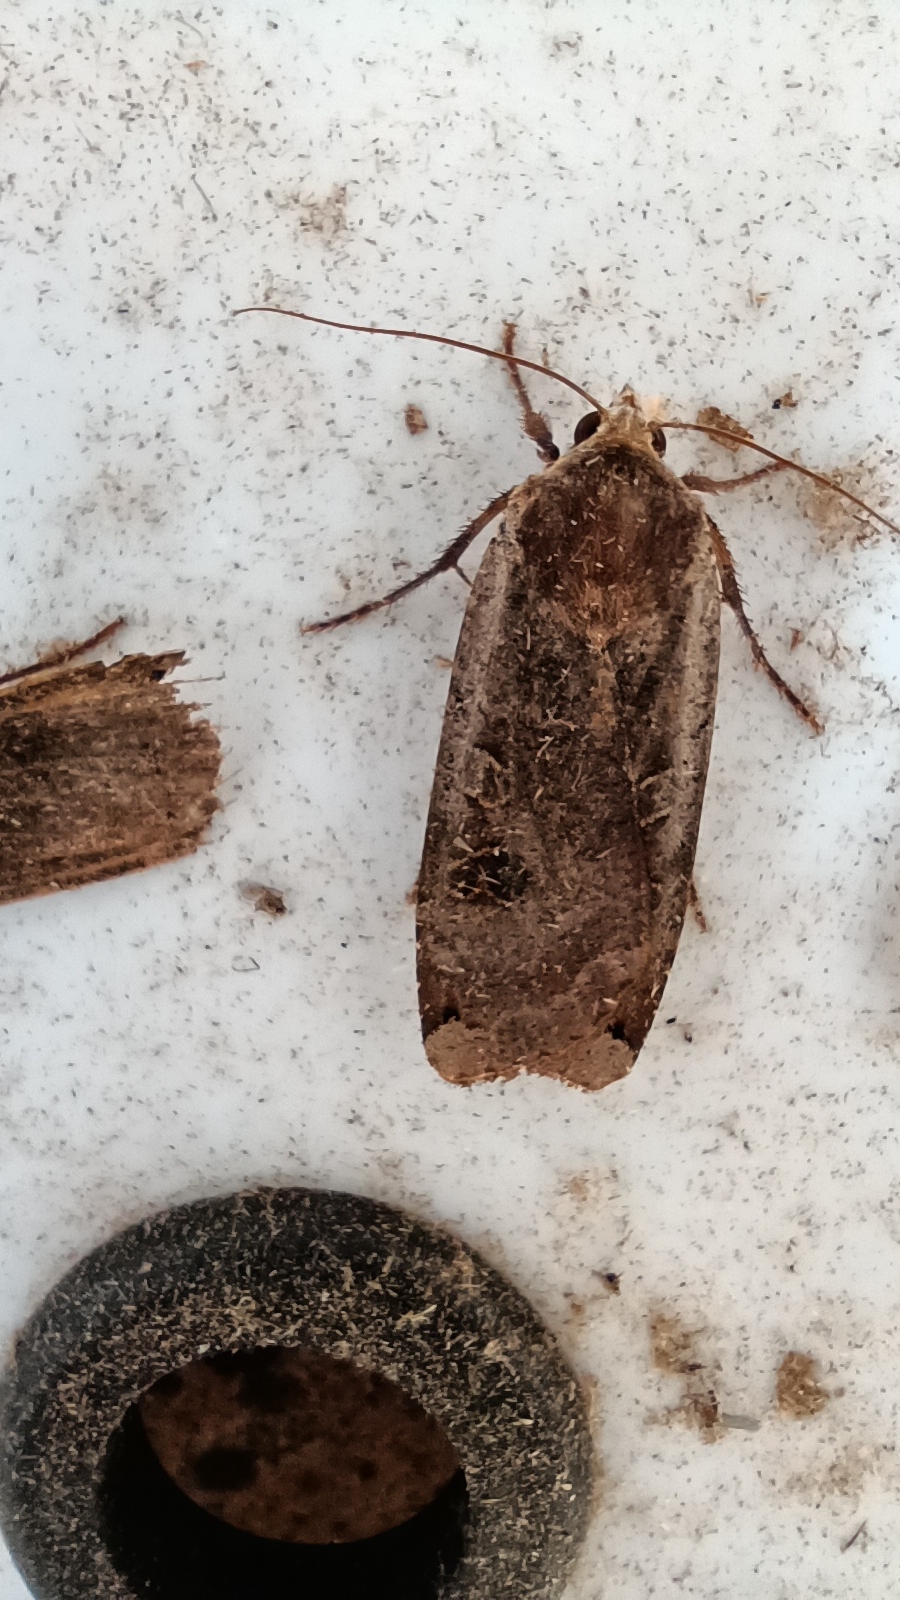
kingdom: Animalia
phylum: Arthropoda
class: Insecta
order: Lepidoptera
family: Noctuidae
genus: Noctua
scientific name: Noctua pronuba
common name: Large yellow underwing
